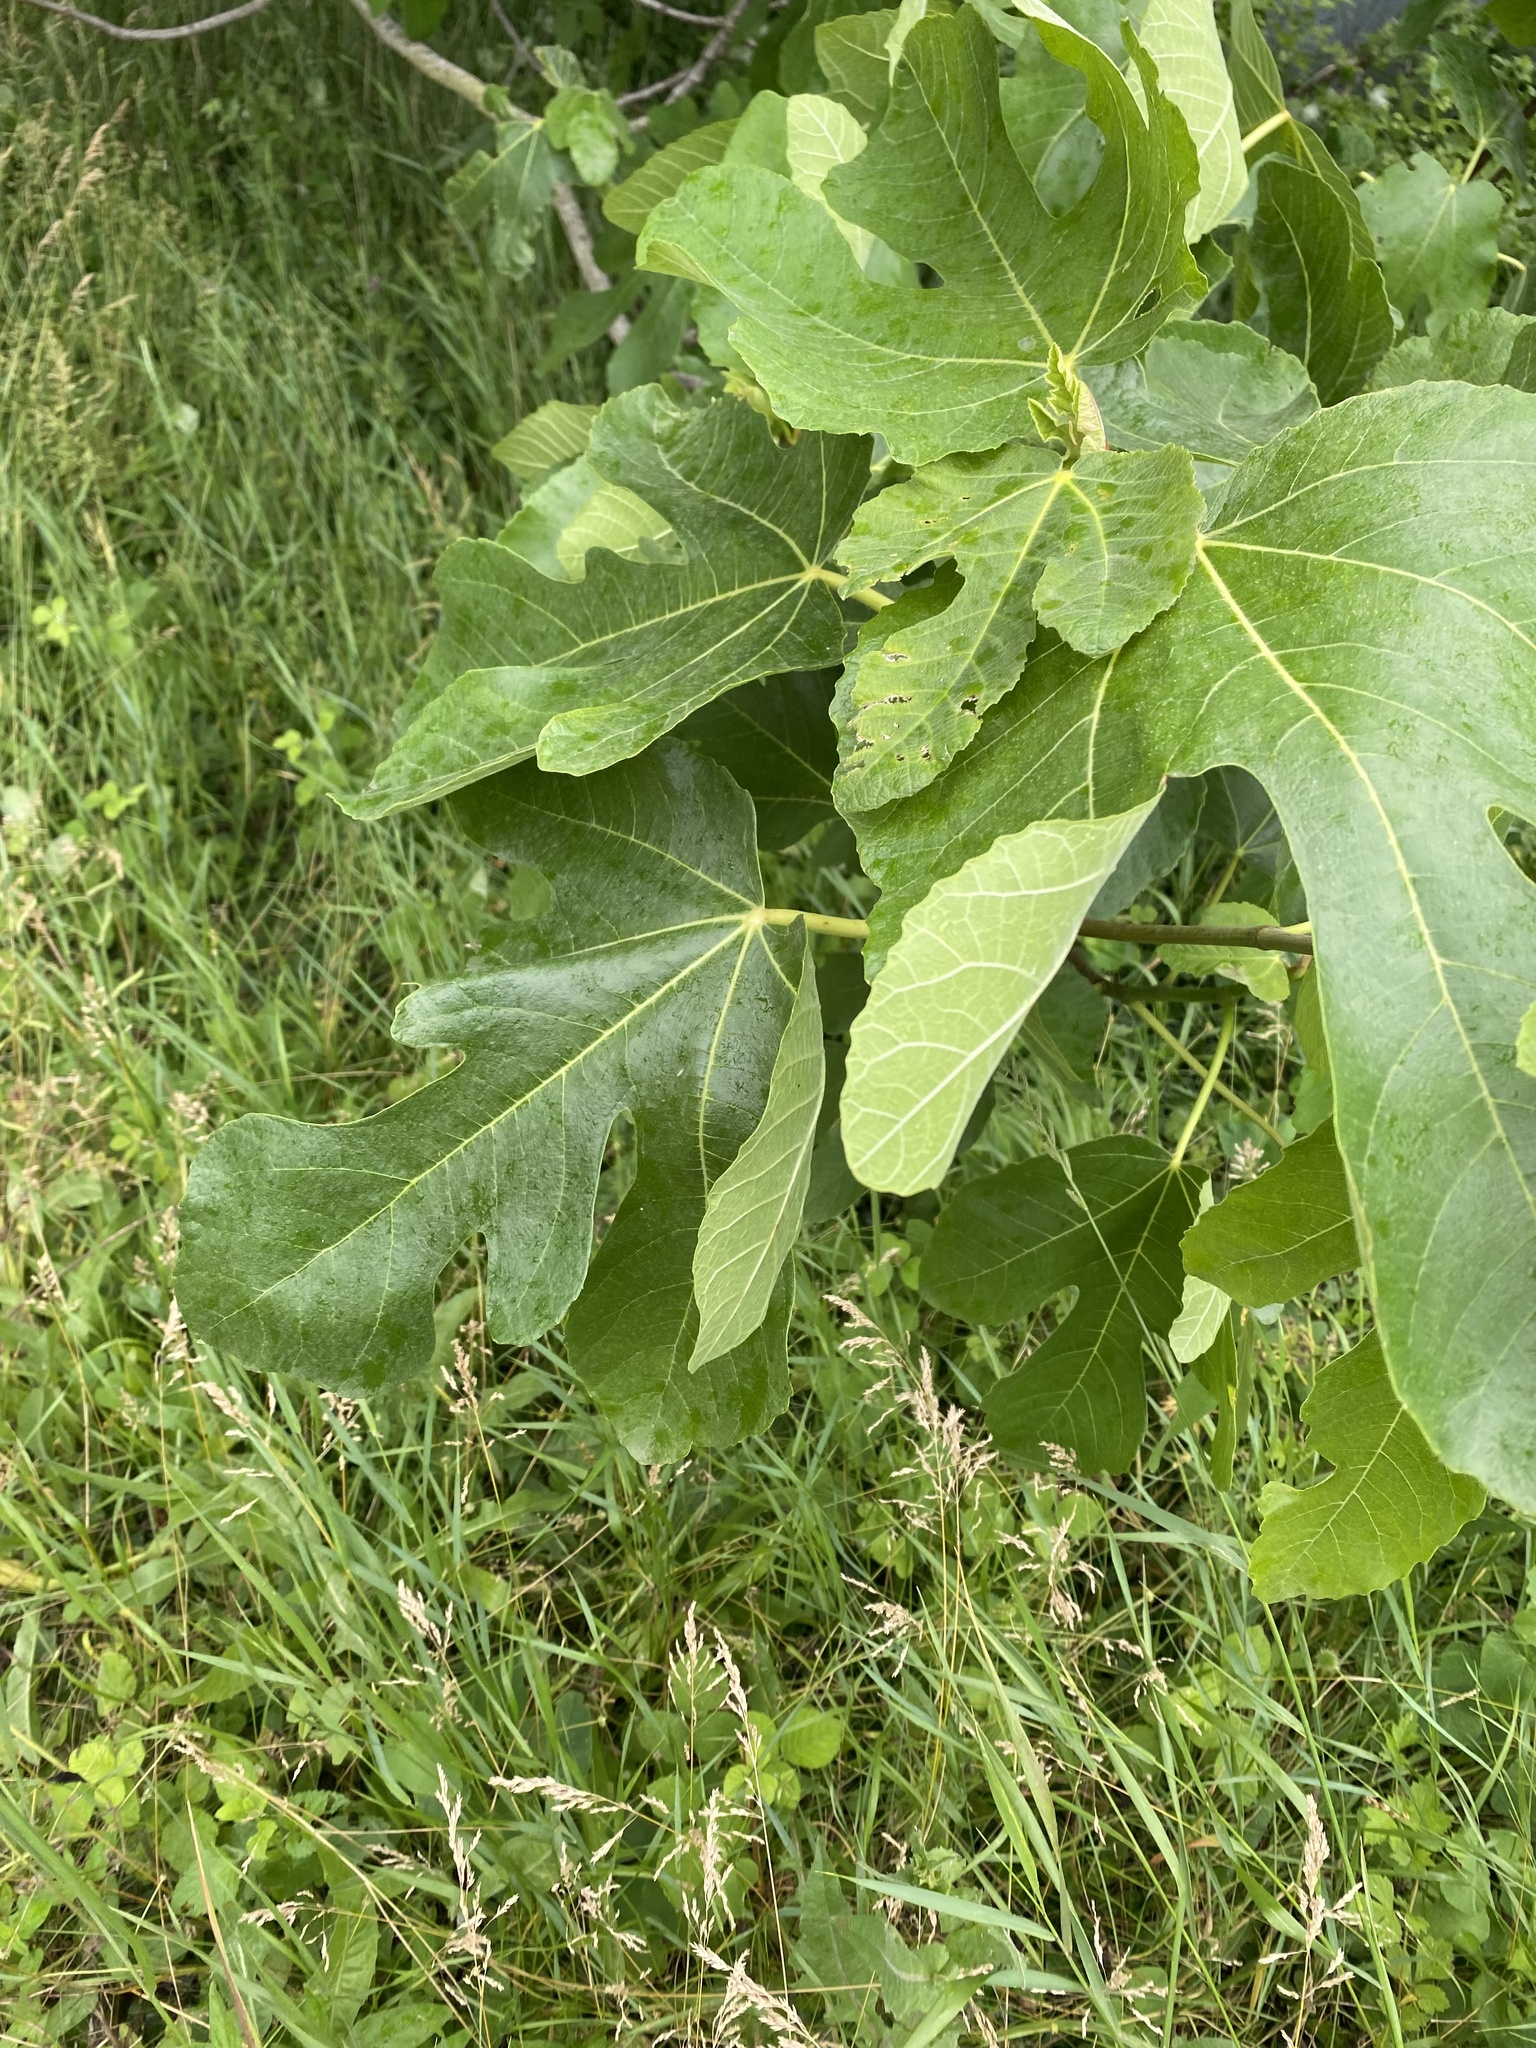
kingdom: Plantae
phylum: Tracheophyta
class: Magnoliopsida
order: Rosales
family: Moraceae
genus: Ficus
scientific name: Ficus carica
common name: Fig
